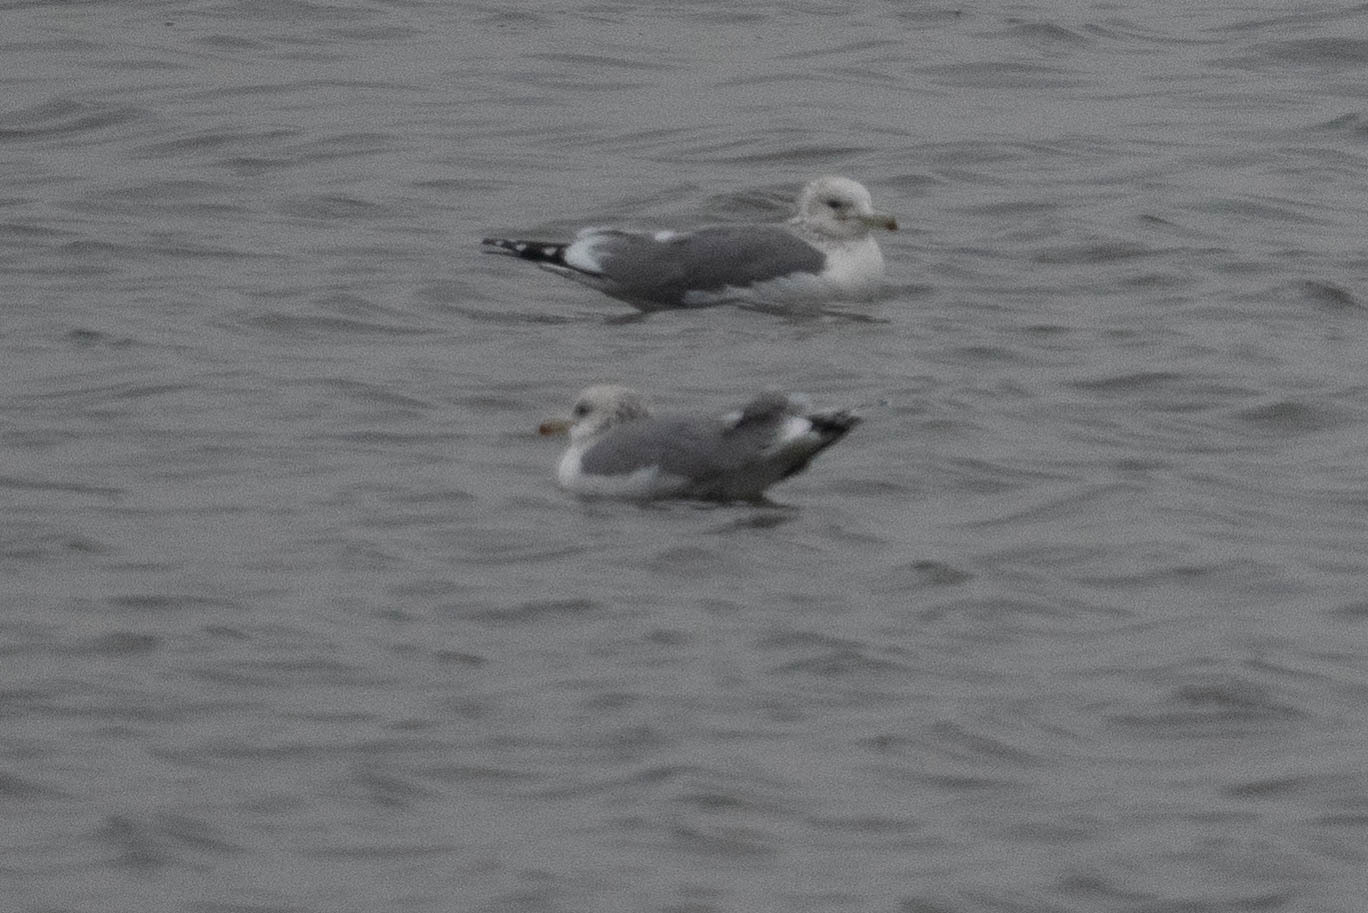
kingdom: Animalia
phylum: Chordata
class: Aves
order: Charadriiformes
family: Laridae
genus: Larus
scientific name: Larus californicus
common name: California gull
